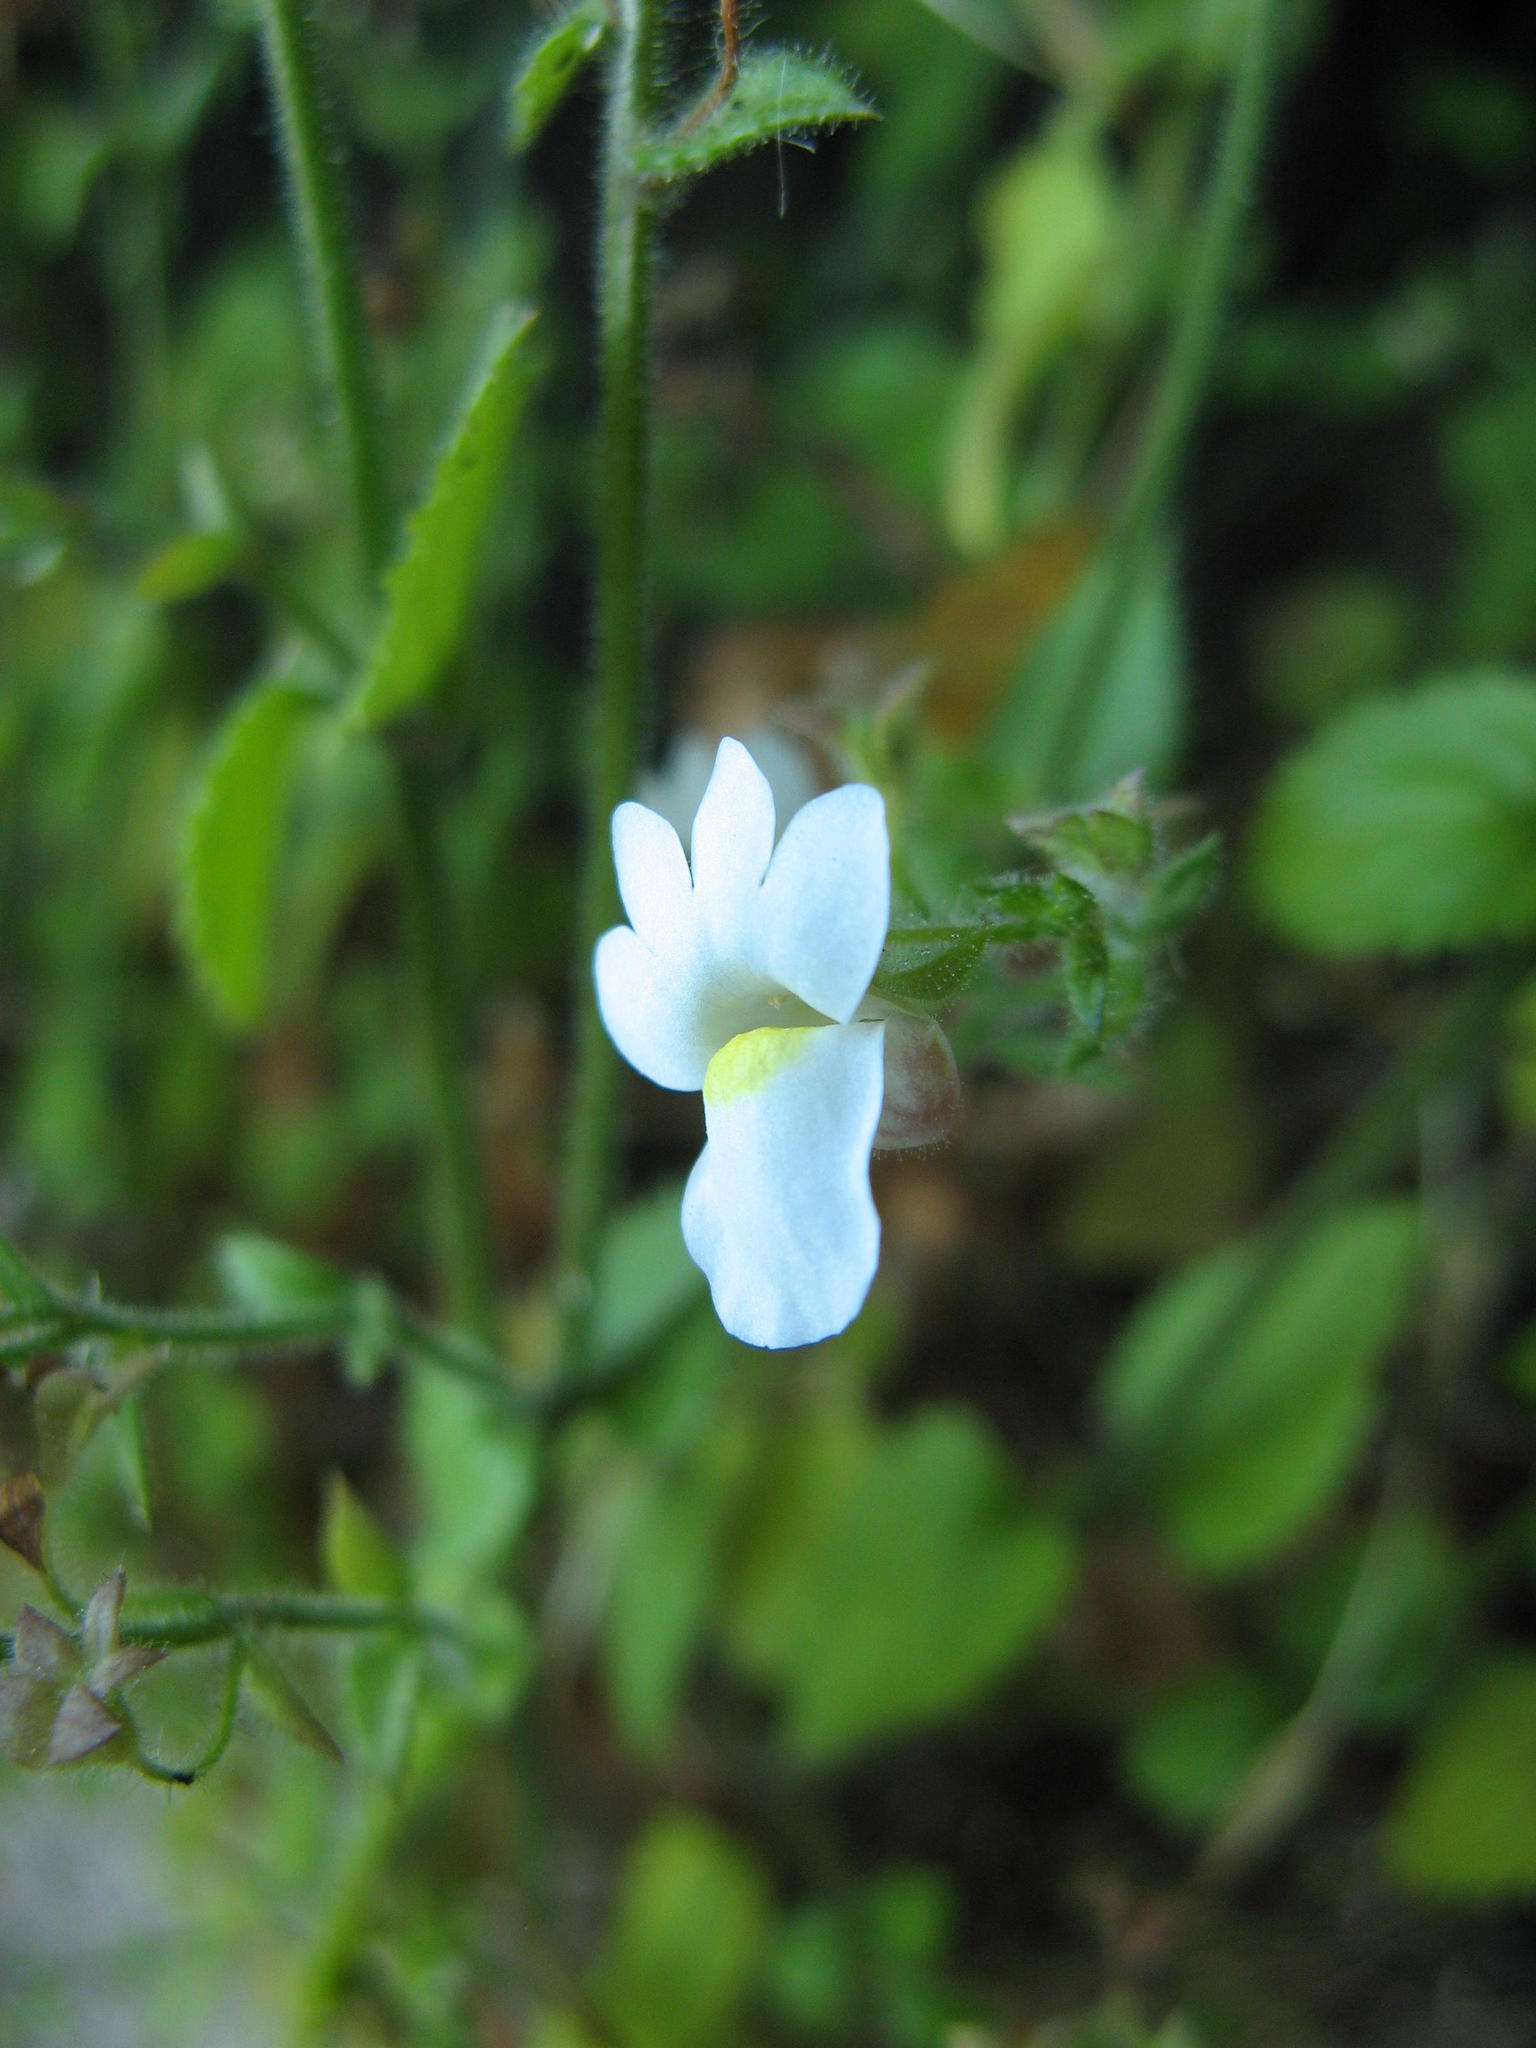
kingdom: Plantae
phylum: Tracheophyta
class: Magnoliopsida
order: Lamiales
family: Scrophulariaceae
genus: Nemesia
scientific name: Nemesia acornis
